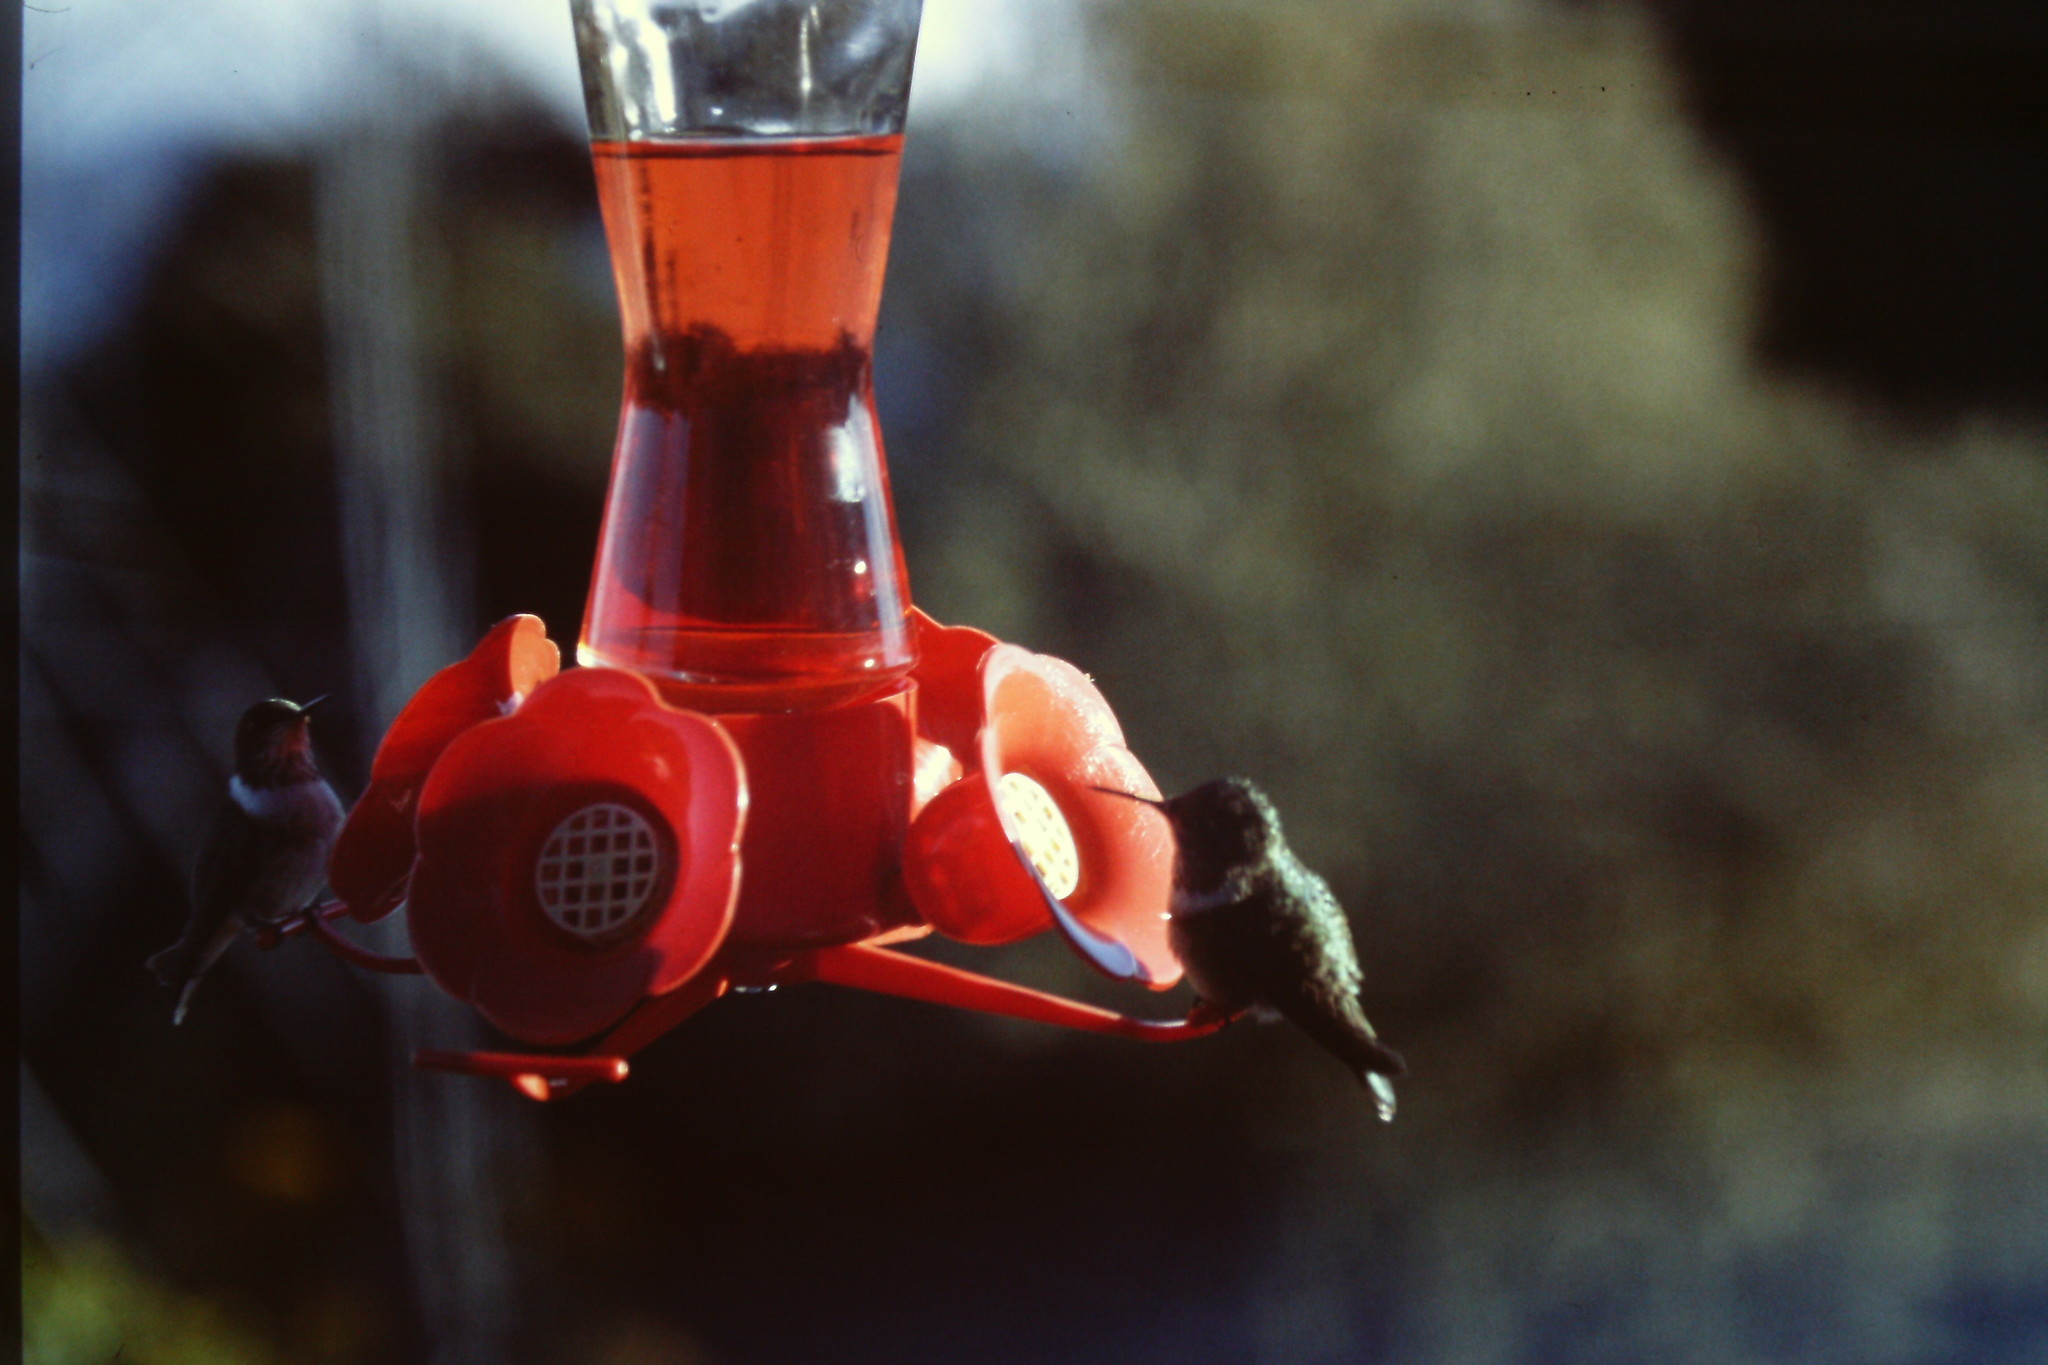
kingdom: Animalia
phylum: Chordata
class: Aves
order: Apodiformes
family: Trochilidae
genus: Selasphorus
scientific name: Selasphorus flammula
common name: Volcano hummingbird
